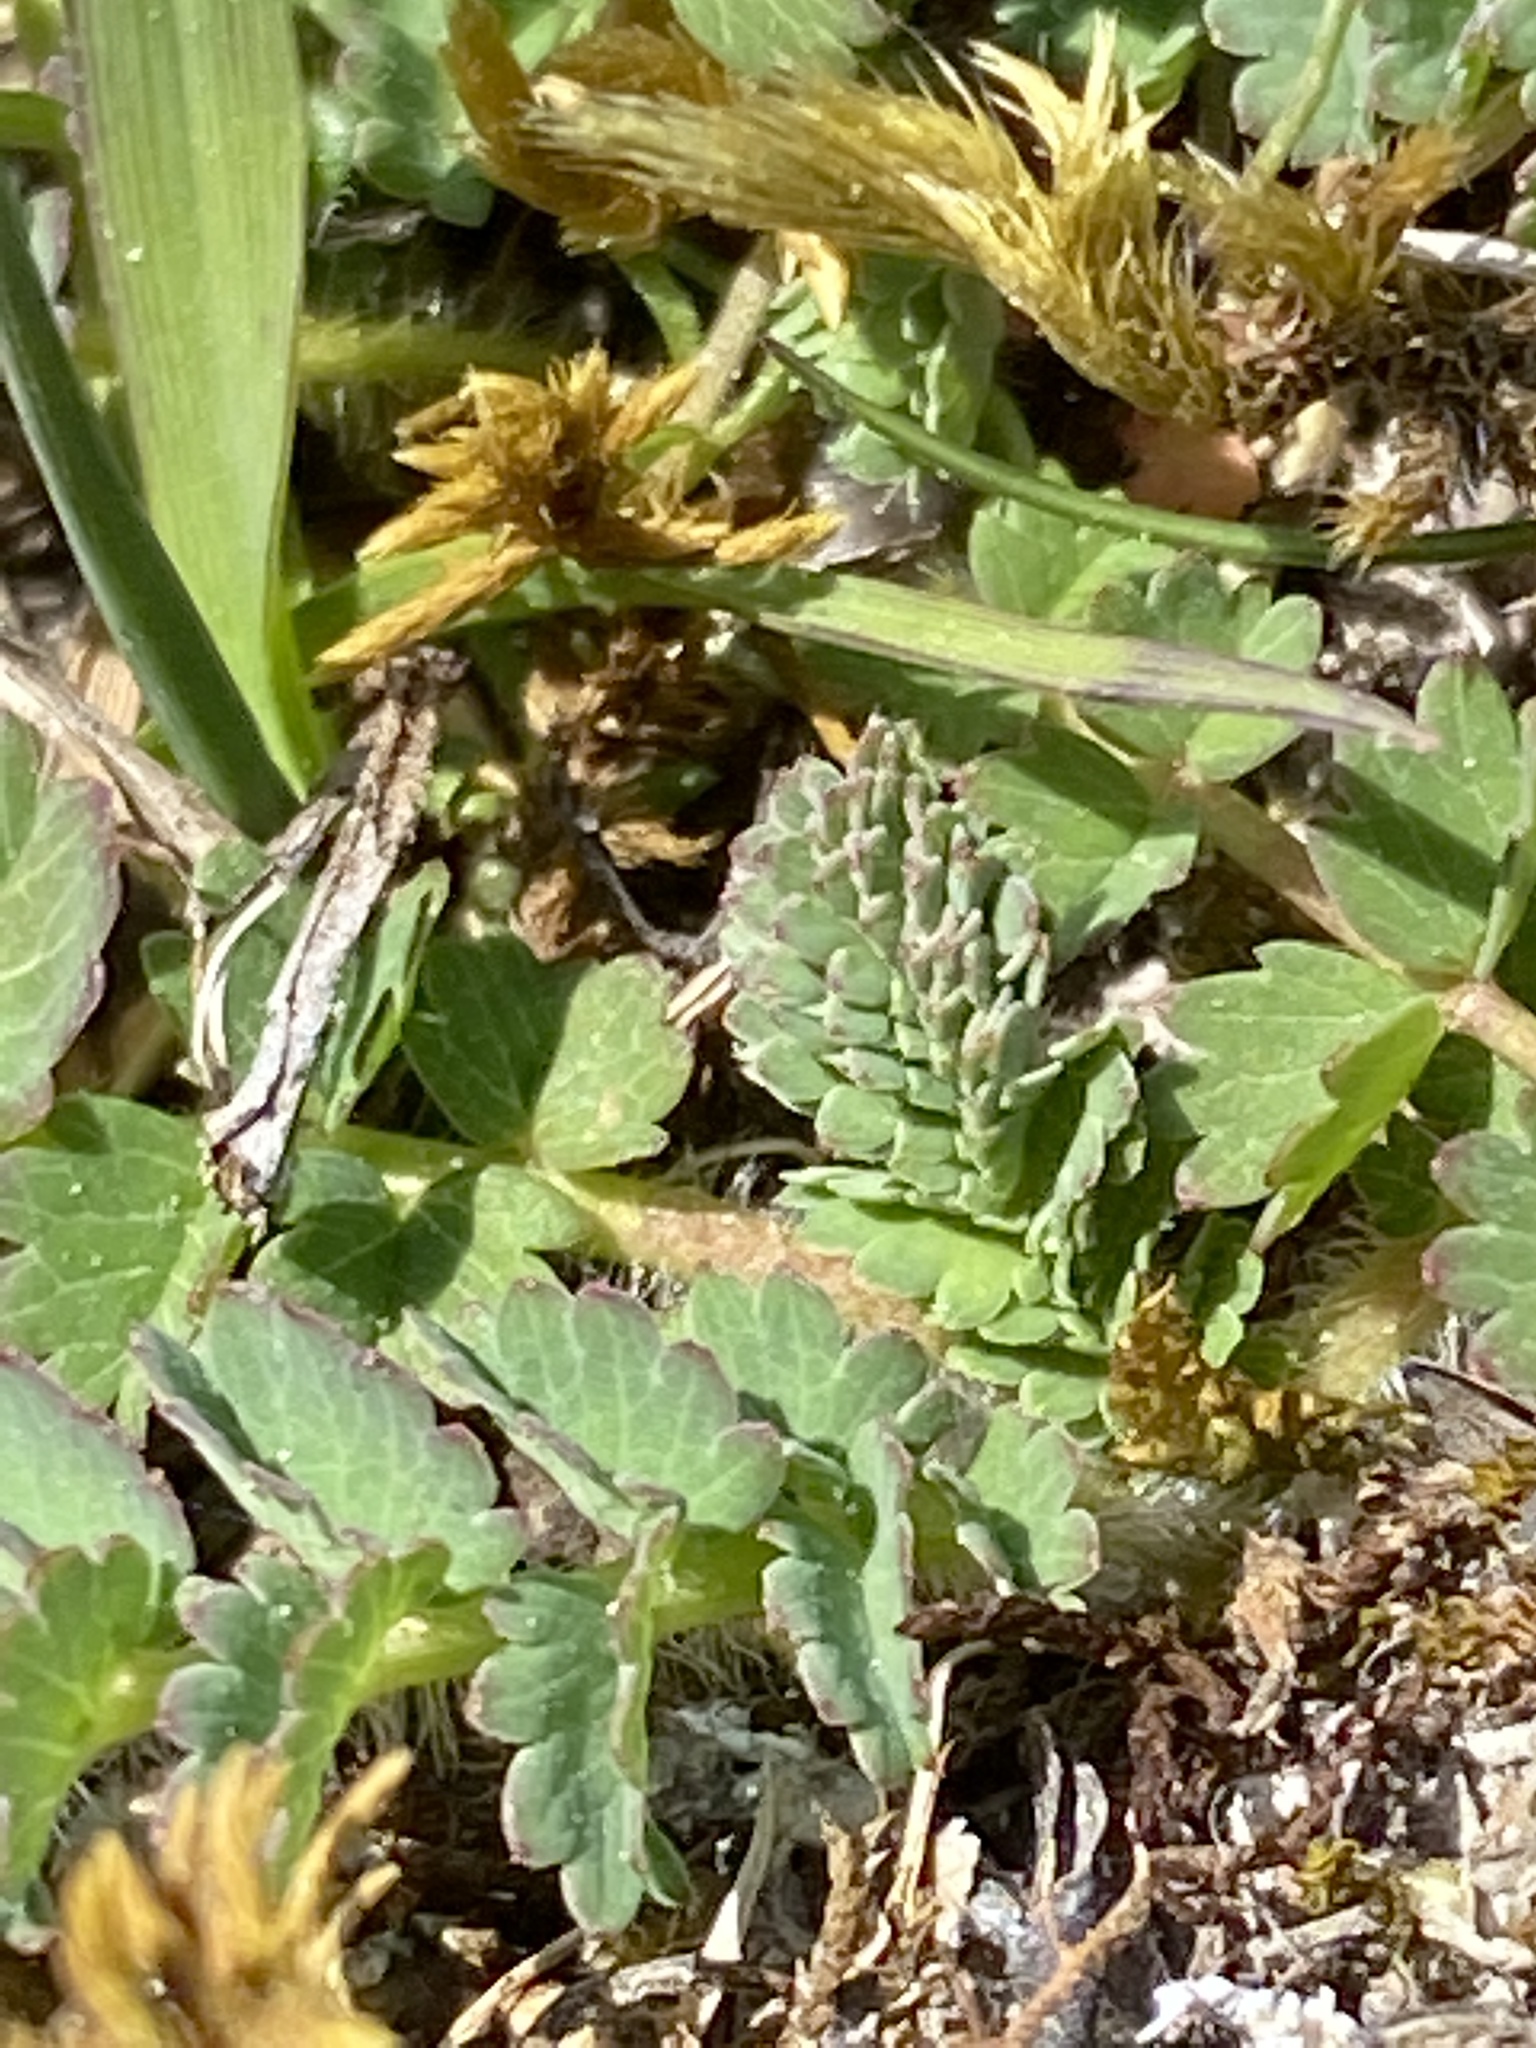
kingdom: Plantae
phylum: Tracheophyta
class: Magnoliopsida
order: Rosales
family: Rosaceae
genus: Poterium
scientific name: Poterium sanguisorba
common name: Salad burnet
